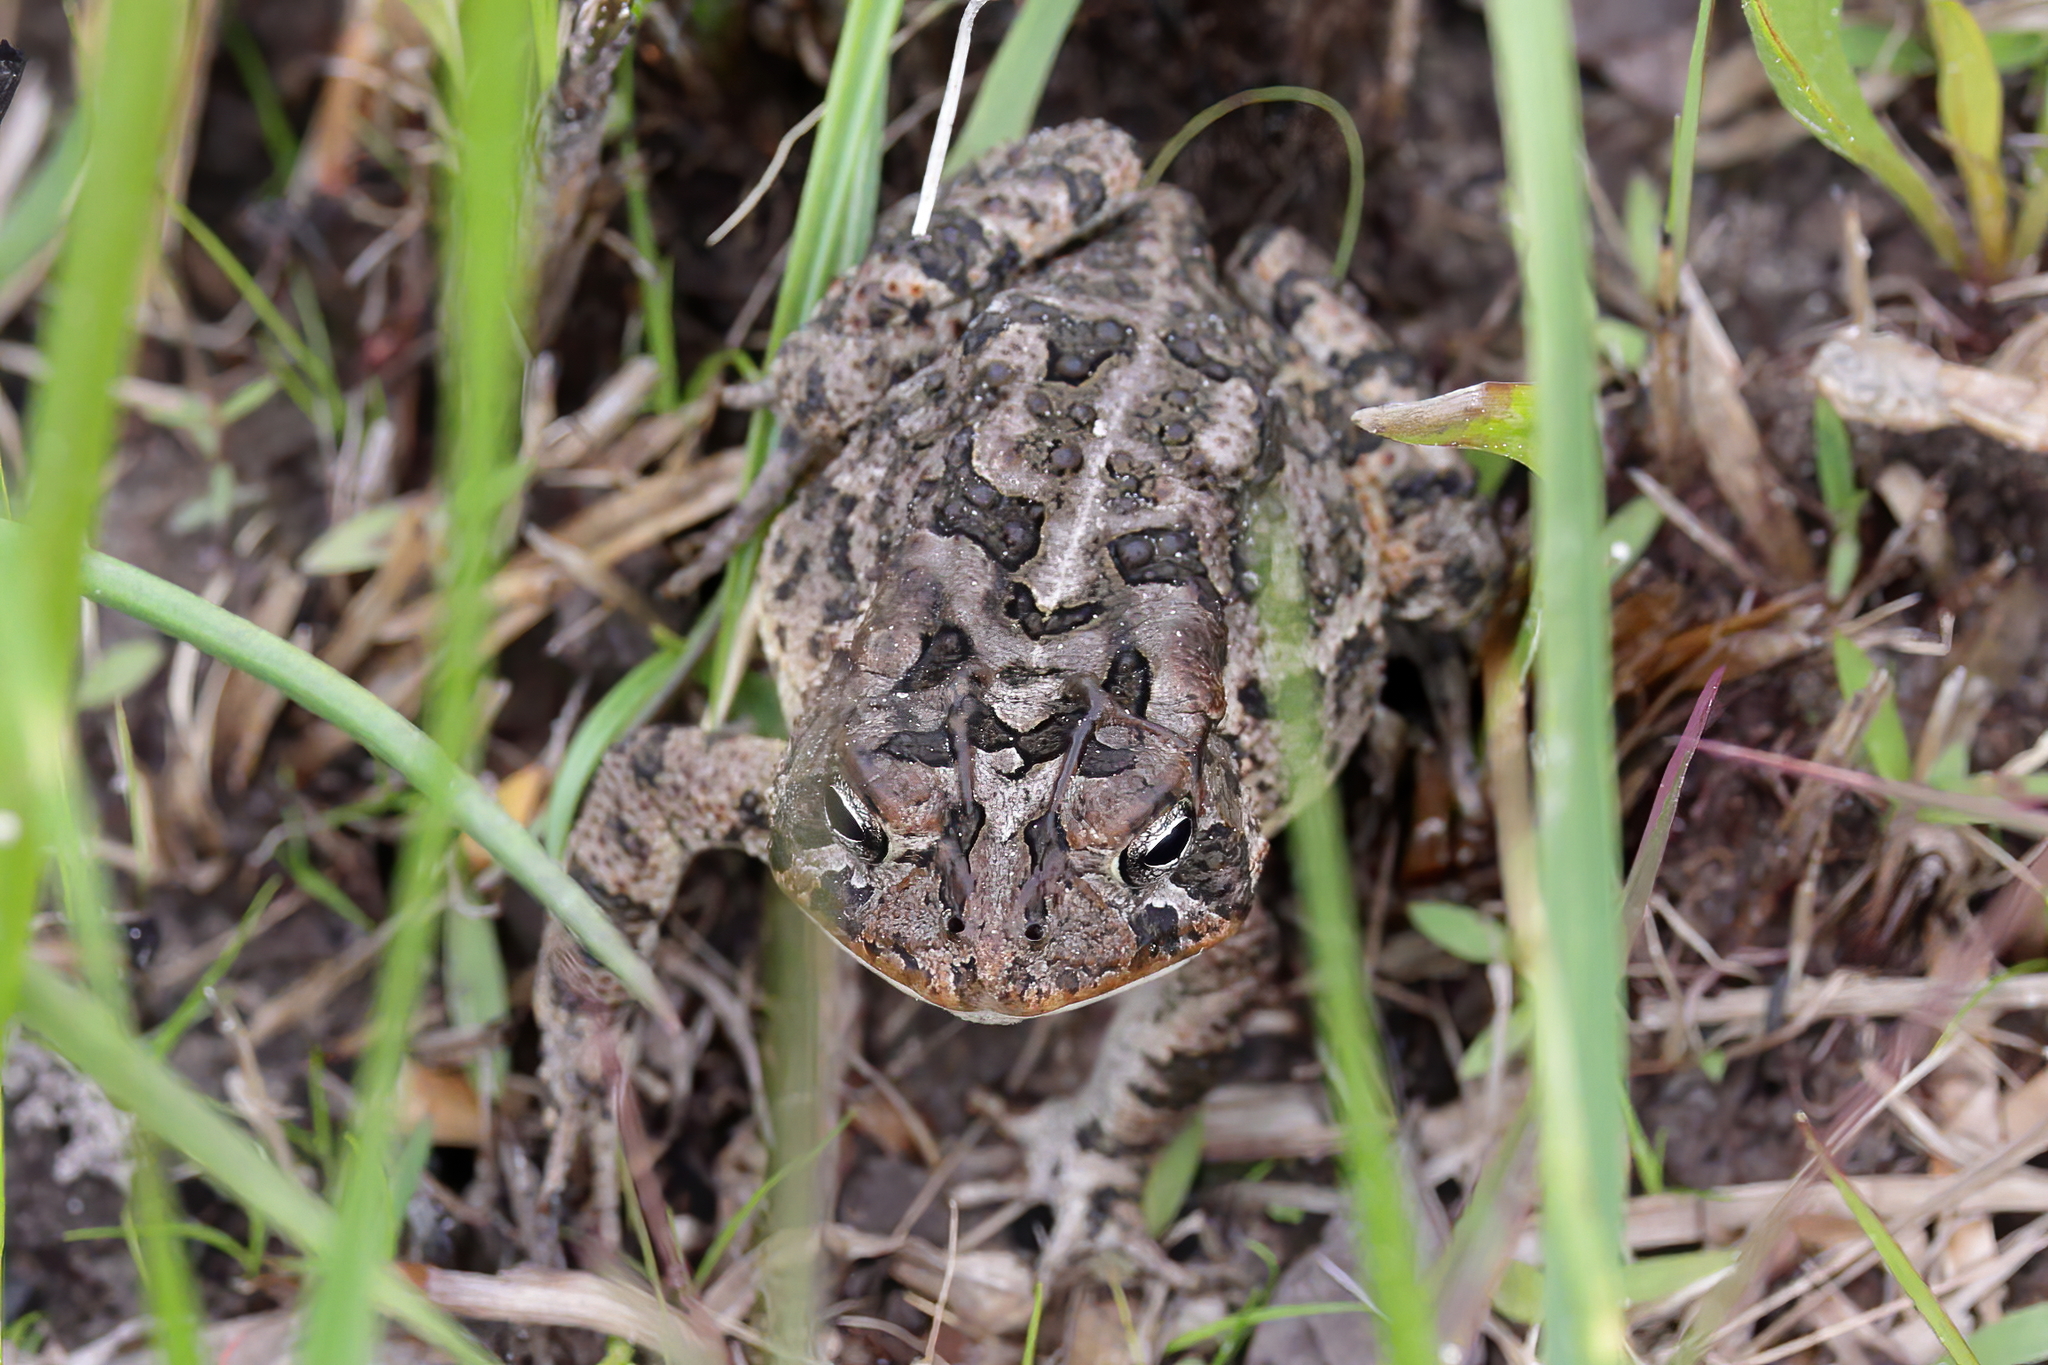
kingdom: Animalia
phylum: Chordata
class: Amphibia
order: Anura
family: Bufonidae
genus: Anaxyrus
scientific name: Anaxyrus terrestris
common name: Southern toad
